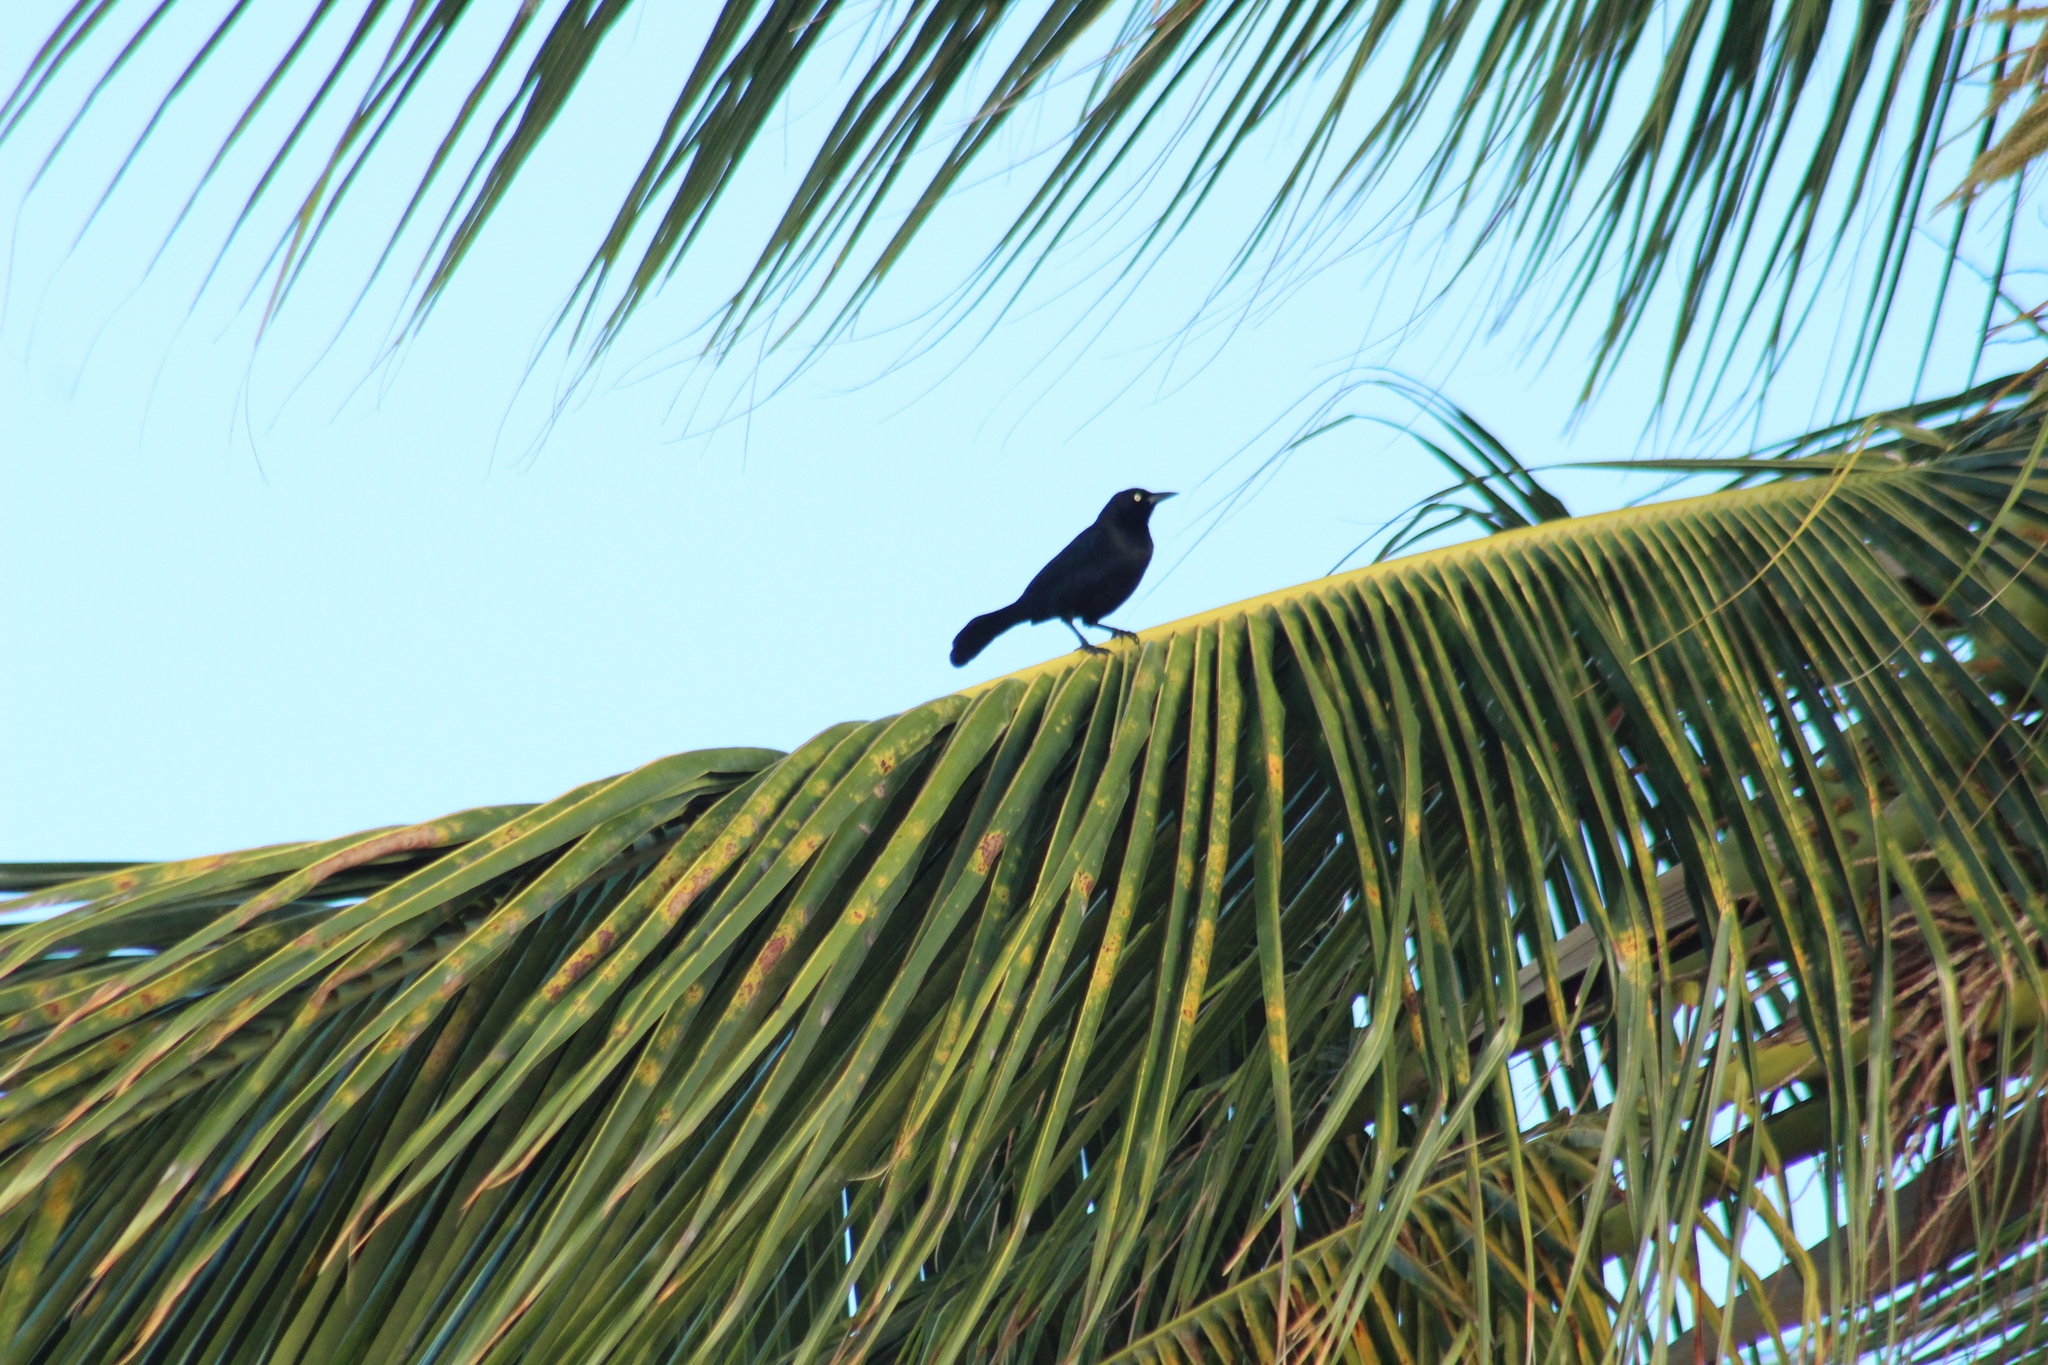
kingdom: Animalia
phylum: Chordata
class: Aves
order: Passeriformes
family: Icteridae
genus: Quiscalus
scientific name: Quiscalus lugubris
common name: Carib grackle
